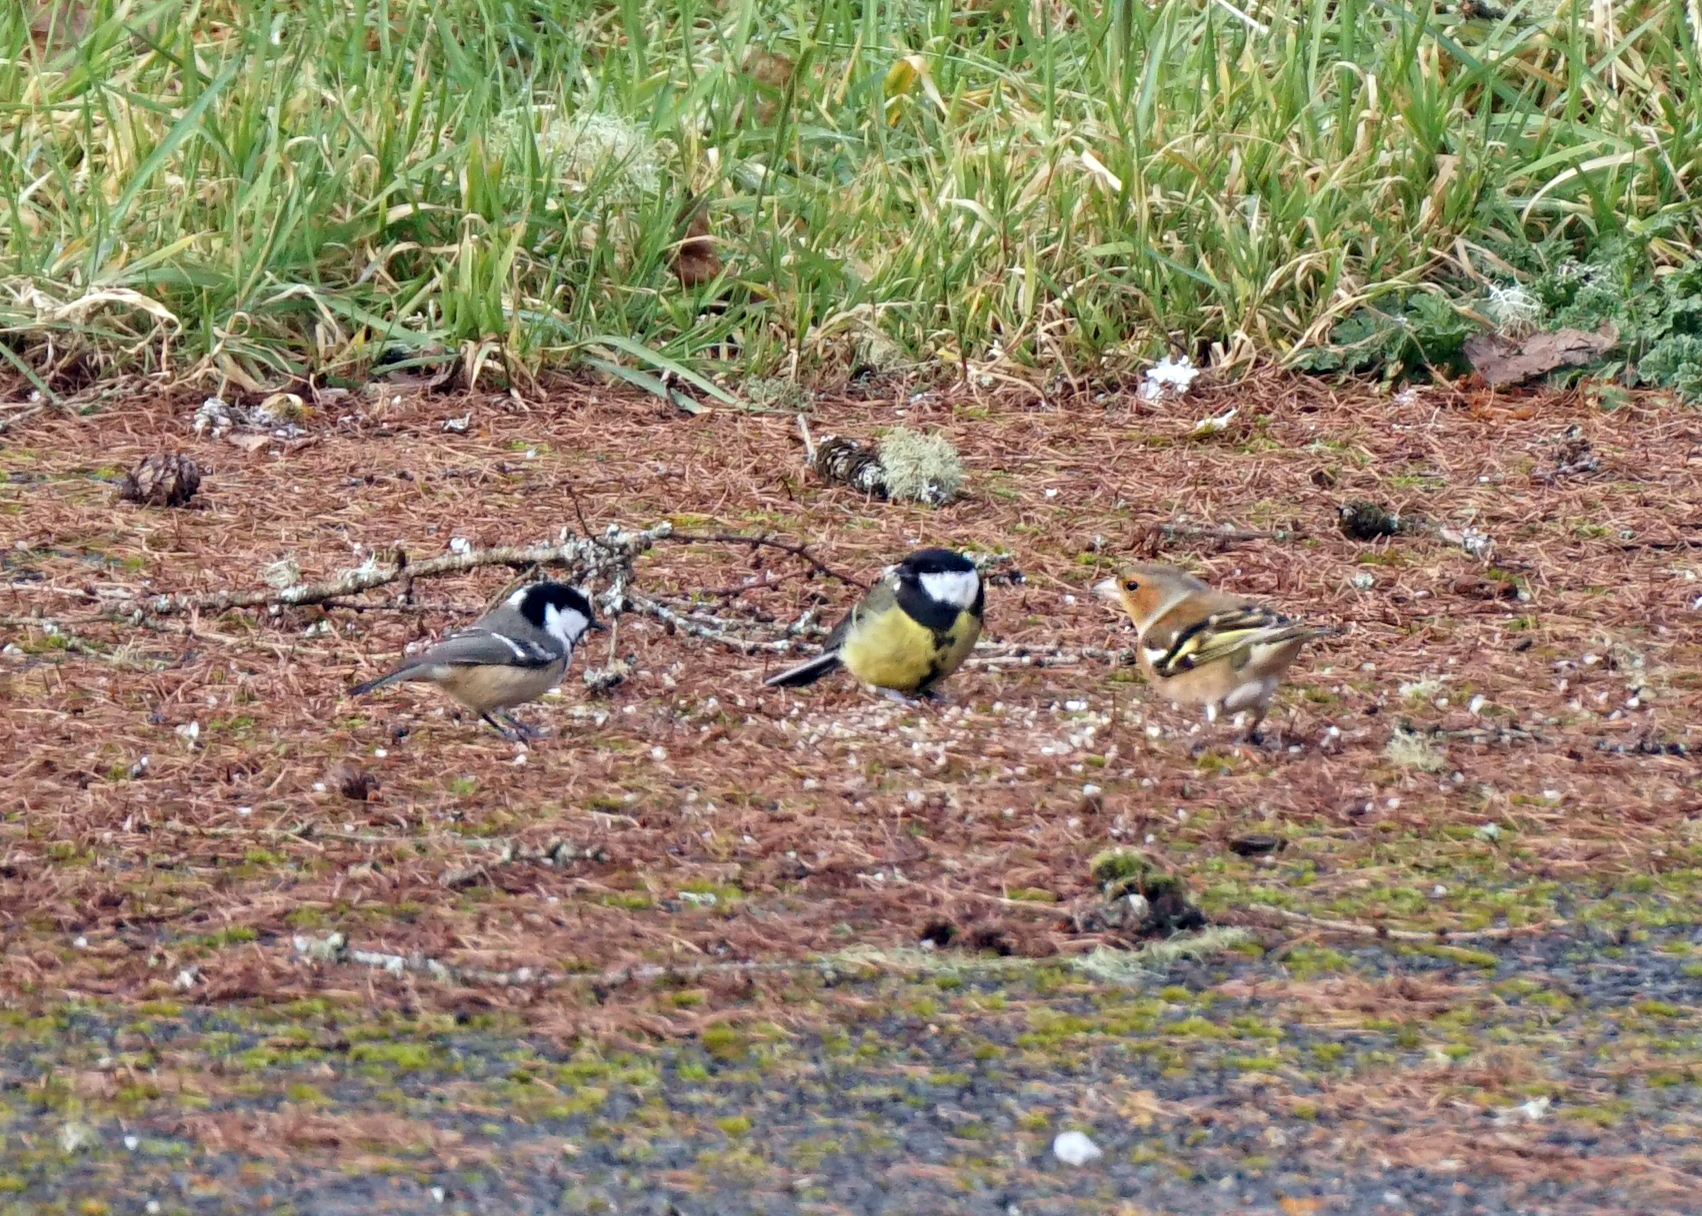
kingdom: Animalia
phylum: Chordata
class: Aves
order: Passeriformes
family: Fringillidae
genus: Fringilla
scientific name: Fringilla coelebs
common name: Common chaffinch
